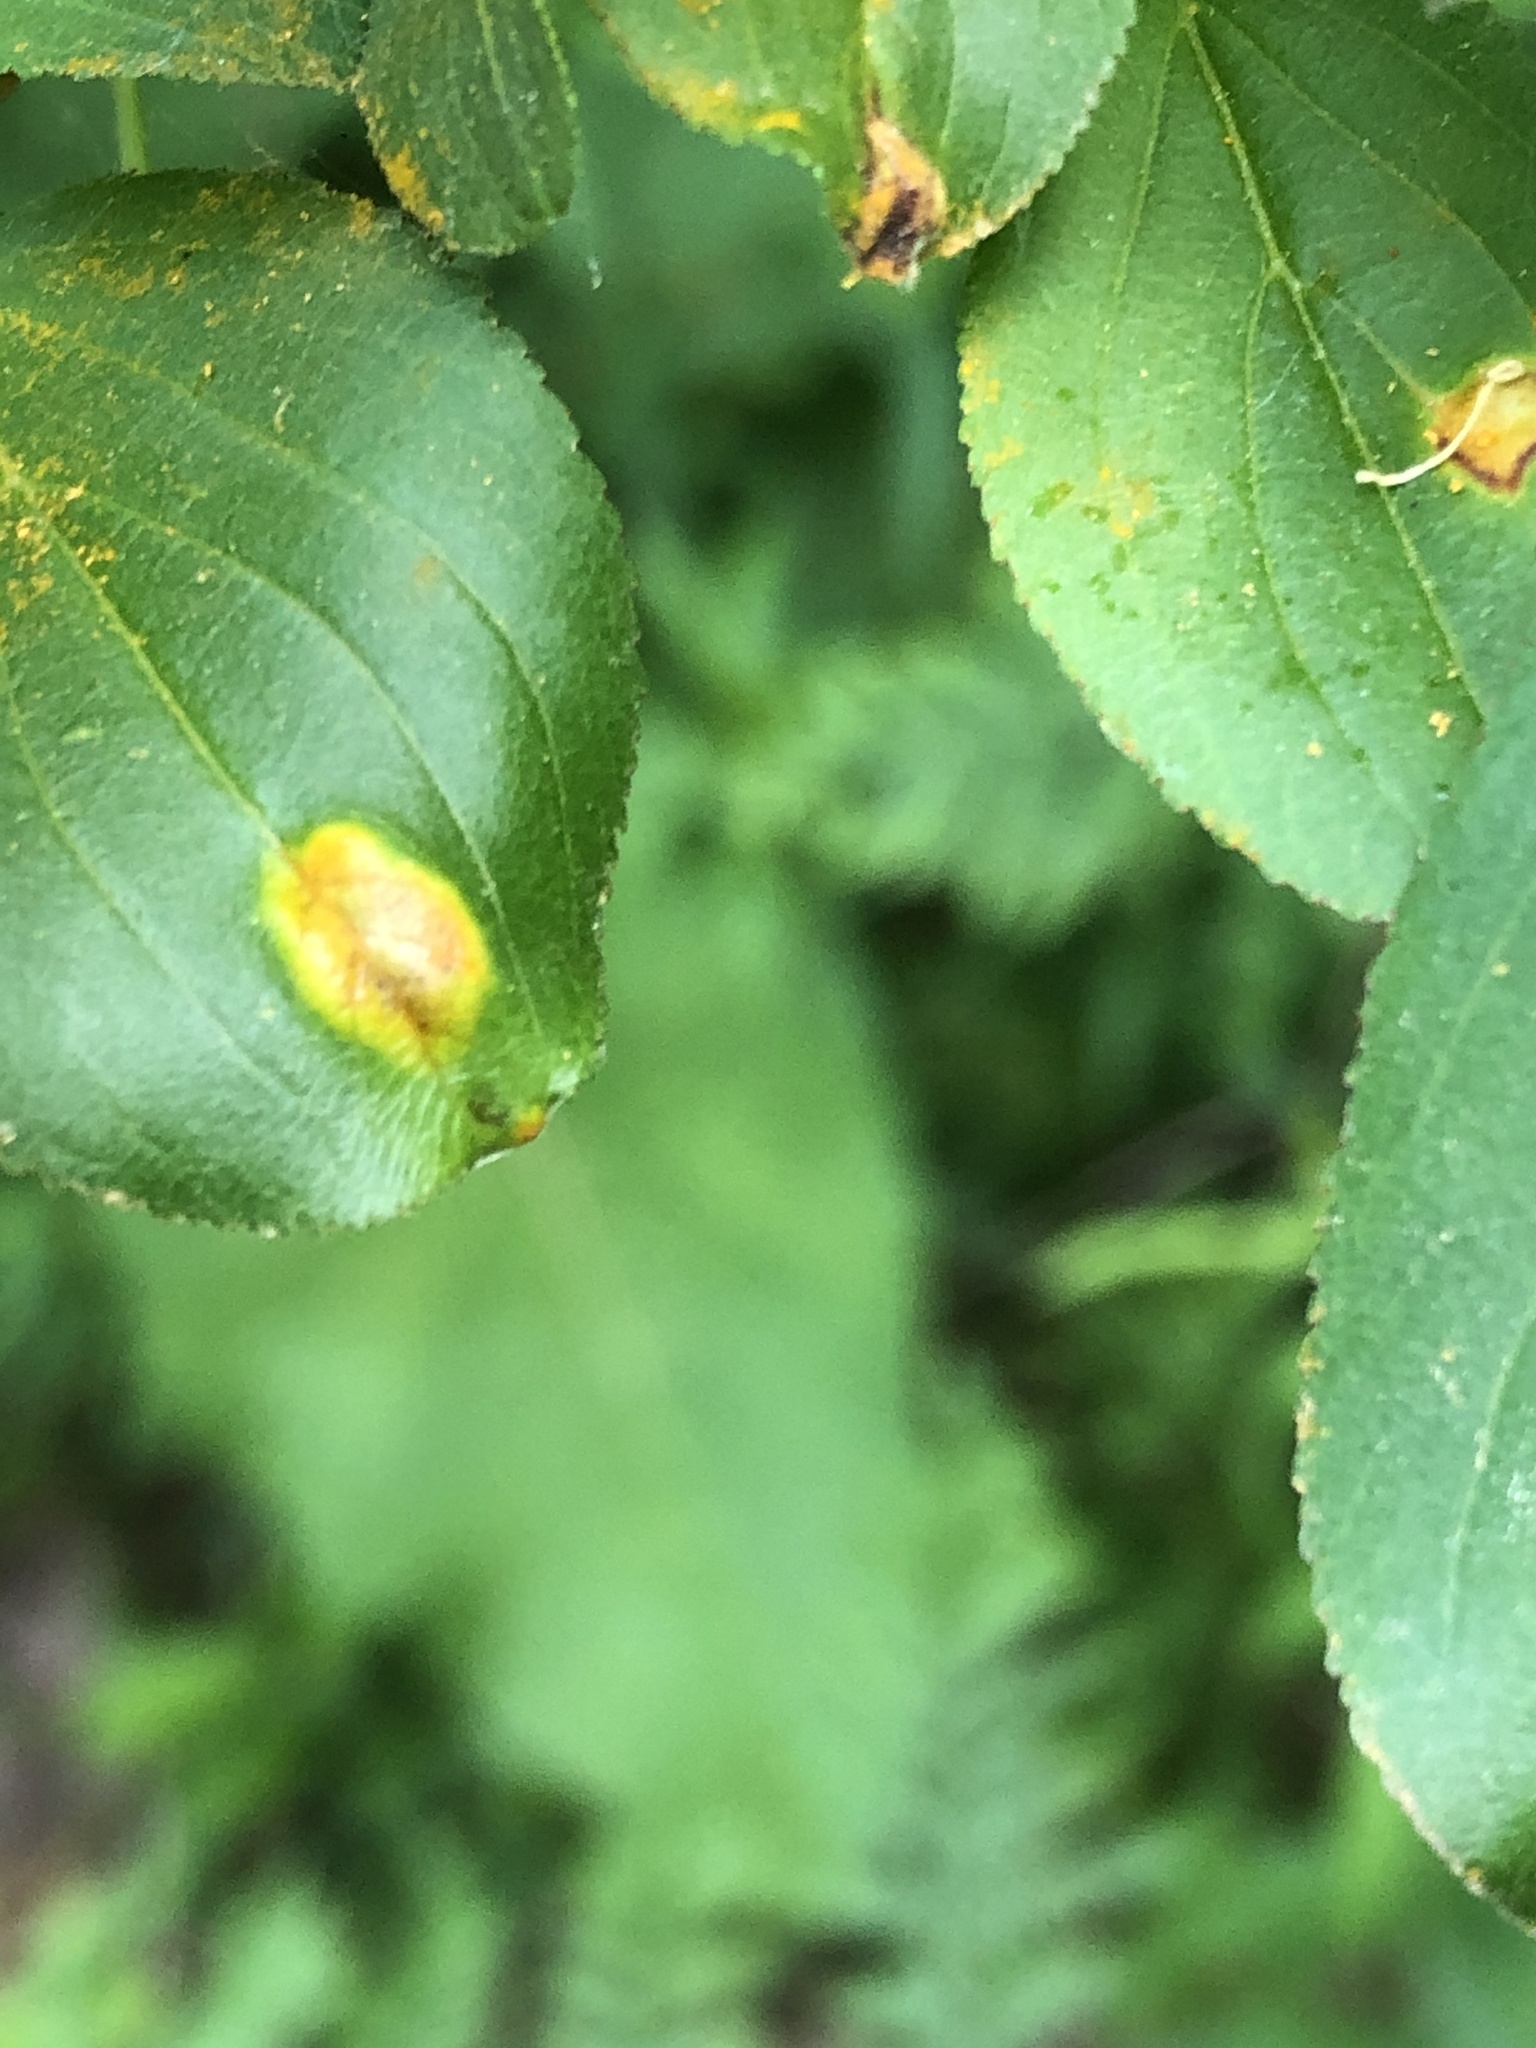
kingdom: Fungi
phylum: Basidiomycota
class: Pucciniomycetes
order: Pucciniales
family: Pucciniaceae
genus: Puccinia
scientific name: Puccinia coronata
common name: Crown rust
